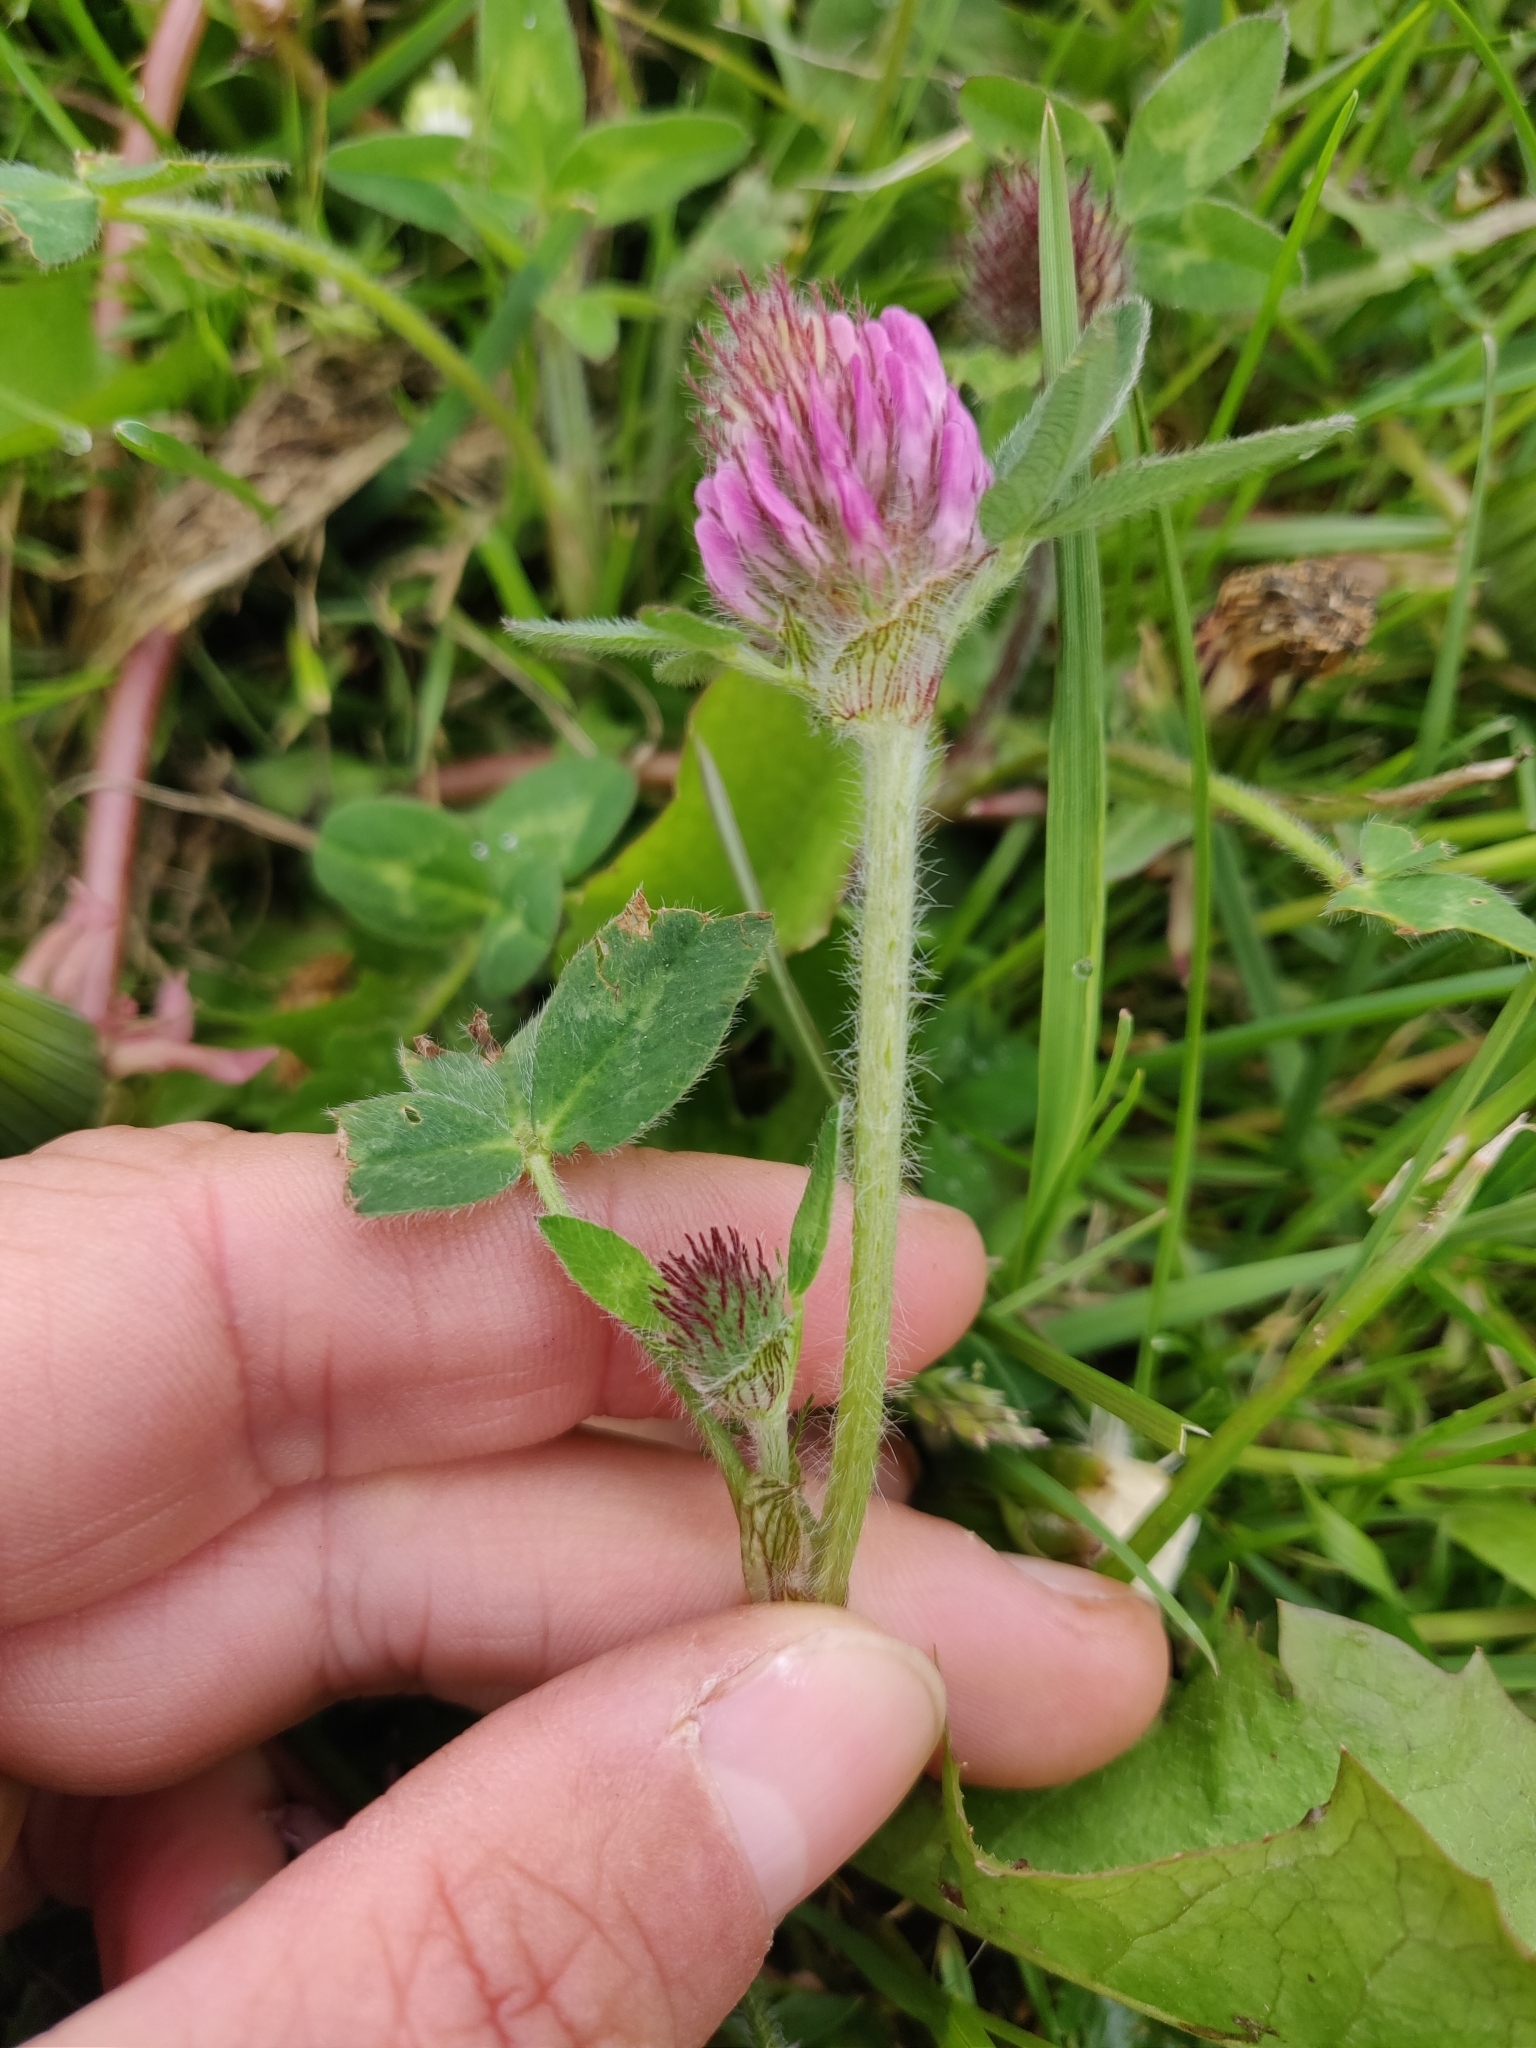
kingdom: Plantae
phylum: Tracheophyta
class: Magnoliopsida
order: Fabales
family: Fabaceae
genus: Trifolium
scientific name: Trifolium pratense
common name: Red clover
